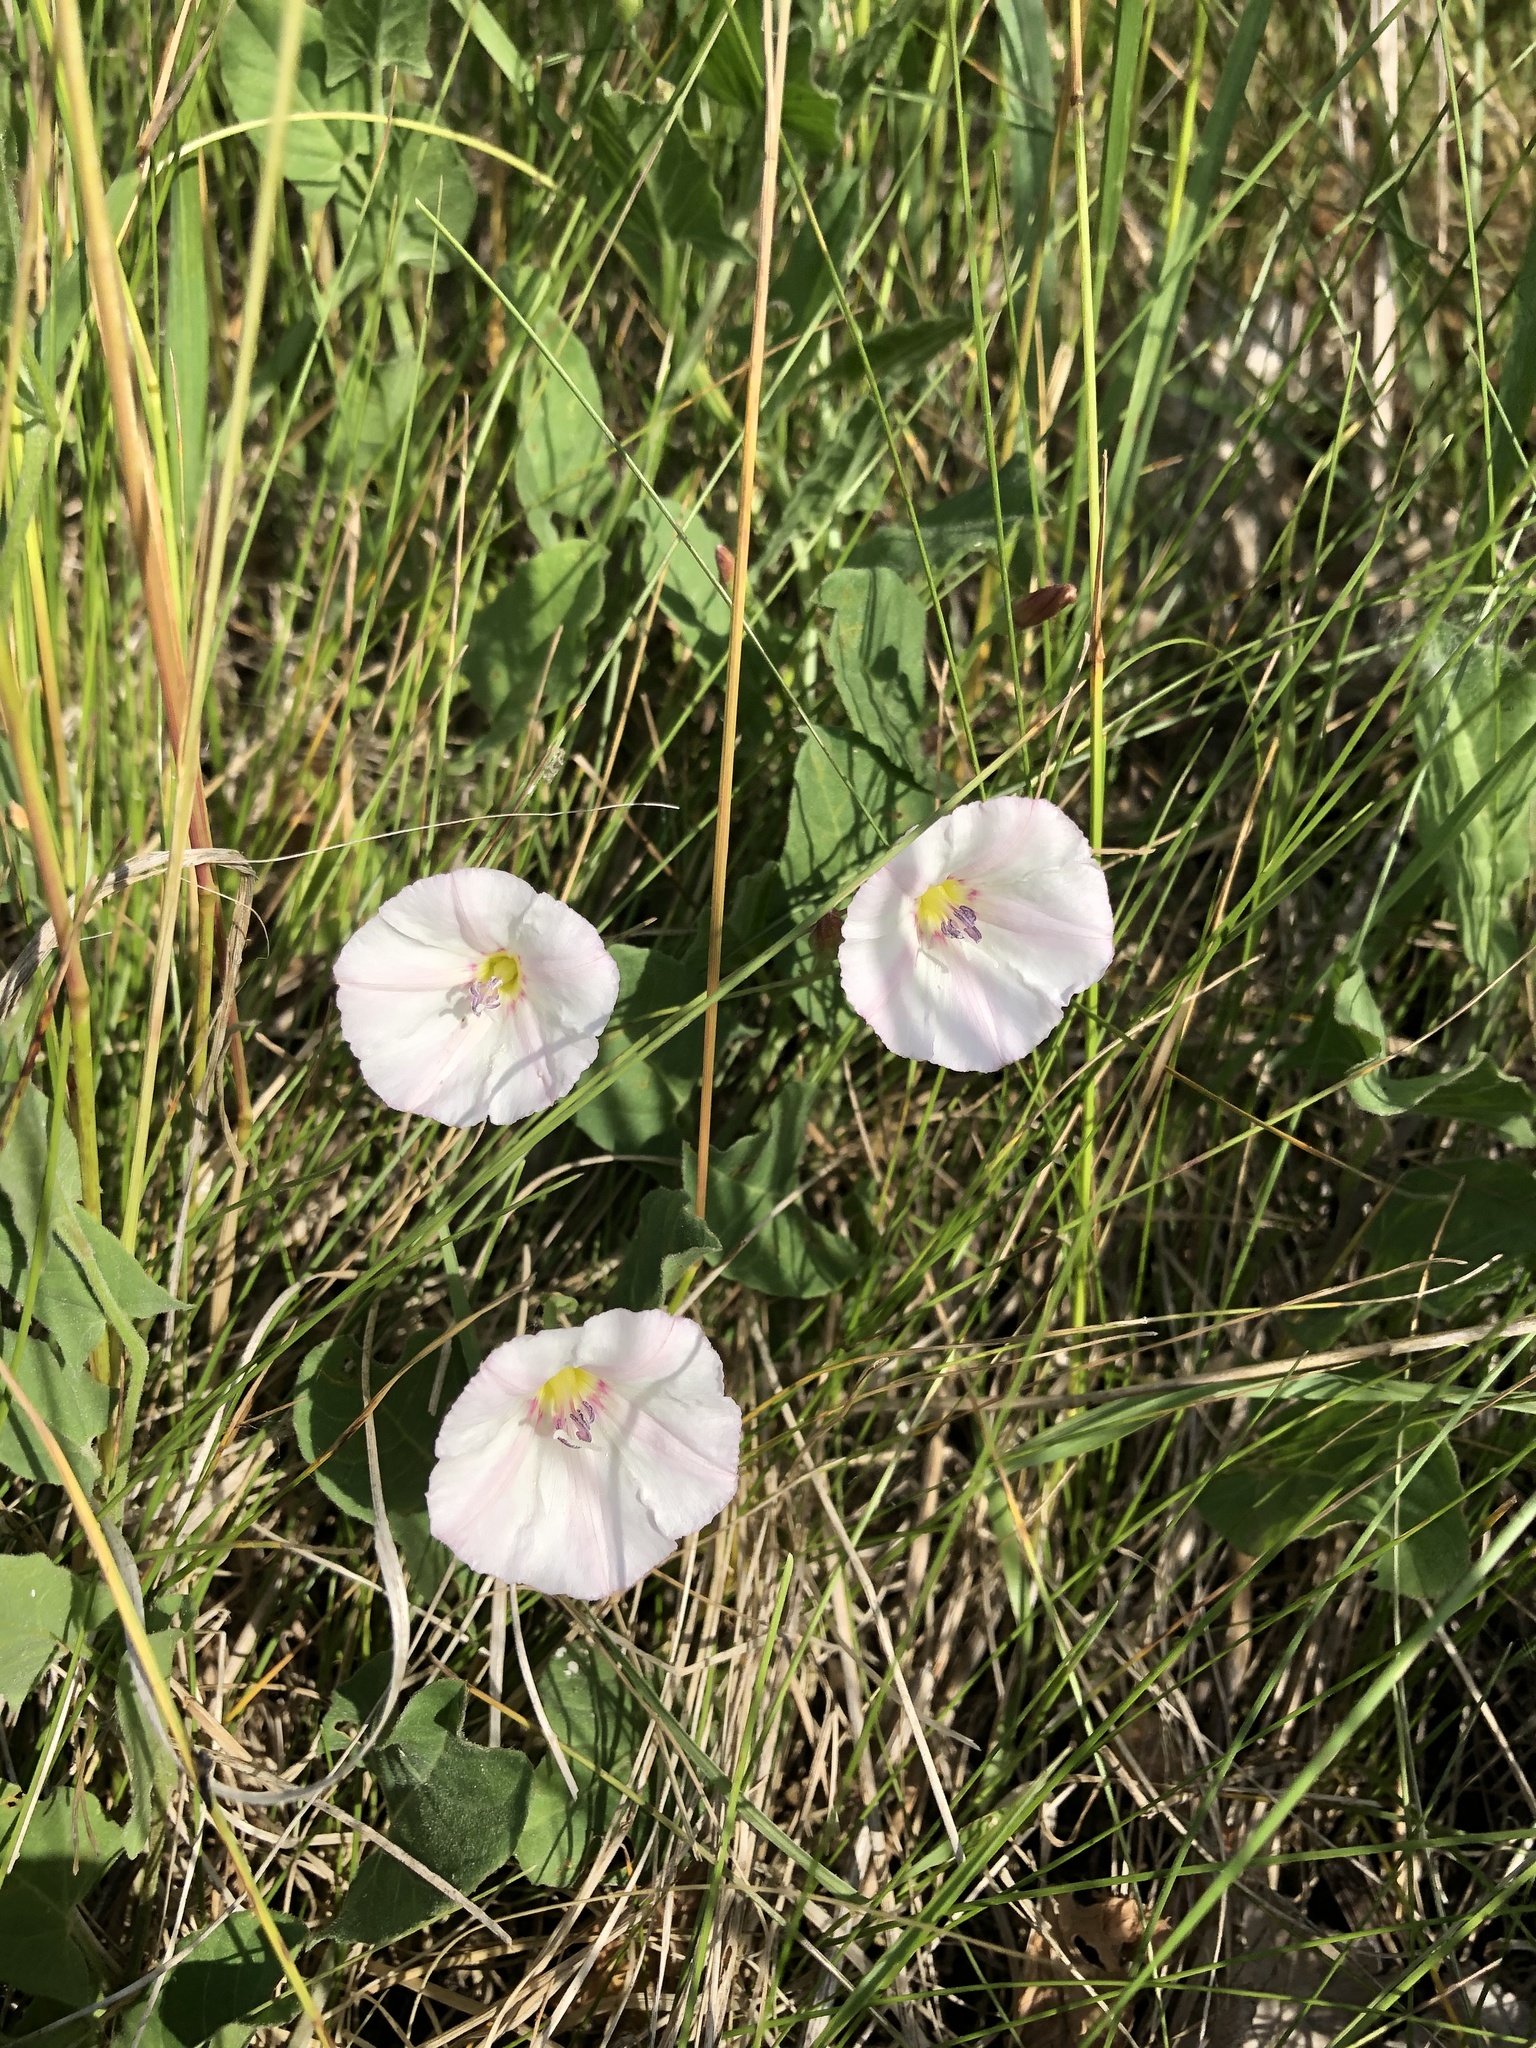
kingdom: Plantae
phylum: Tracheophyta
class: Magnoliopsida
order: Solanales
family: Convolvulaceae
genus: Convolvulus
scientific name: Convolvulus arvensis
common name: Field bindweed
